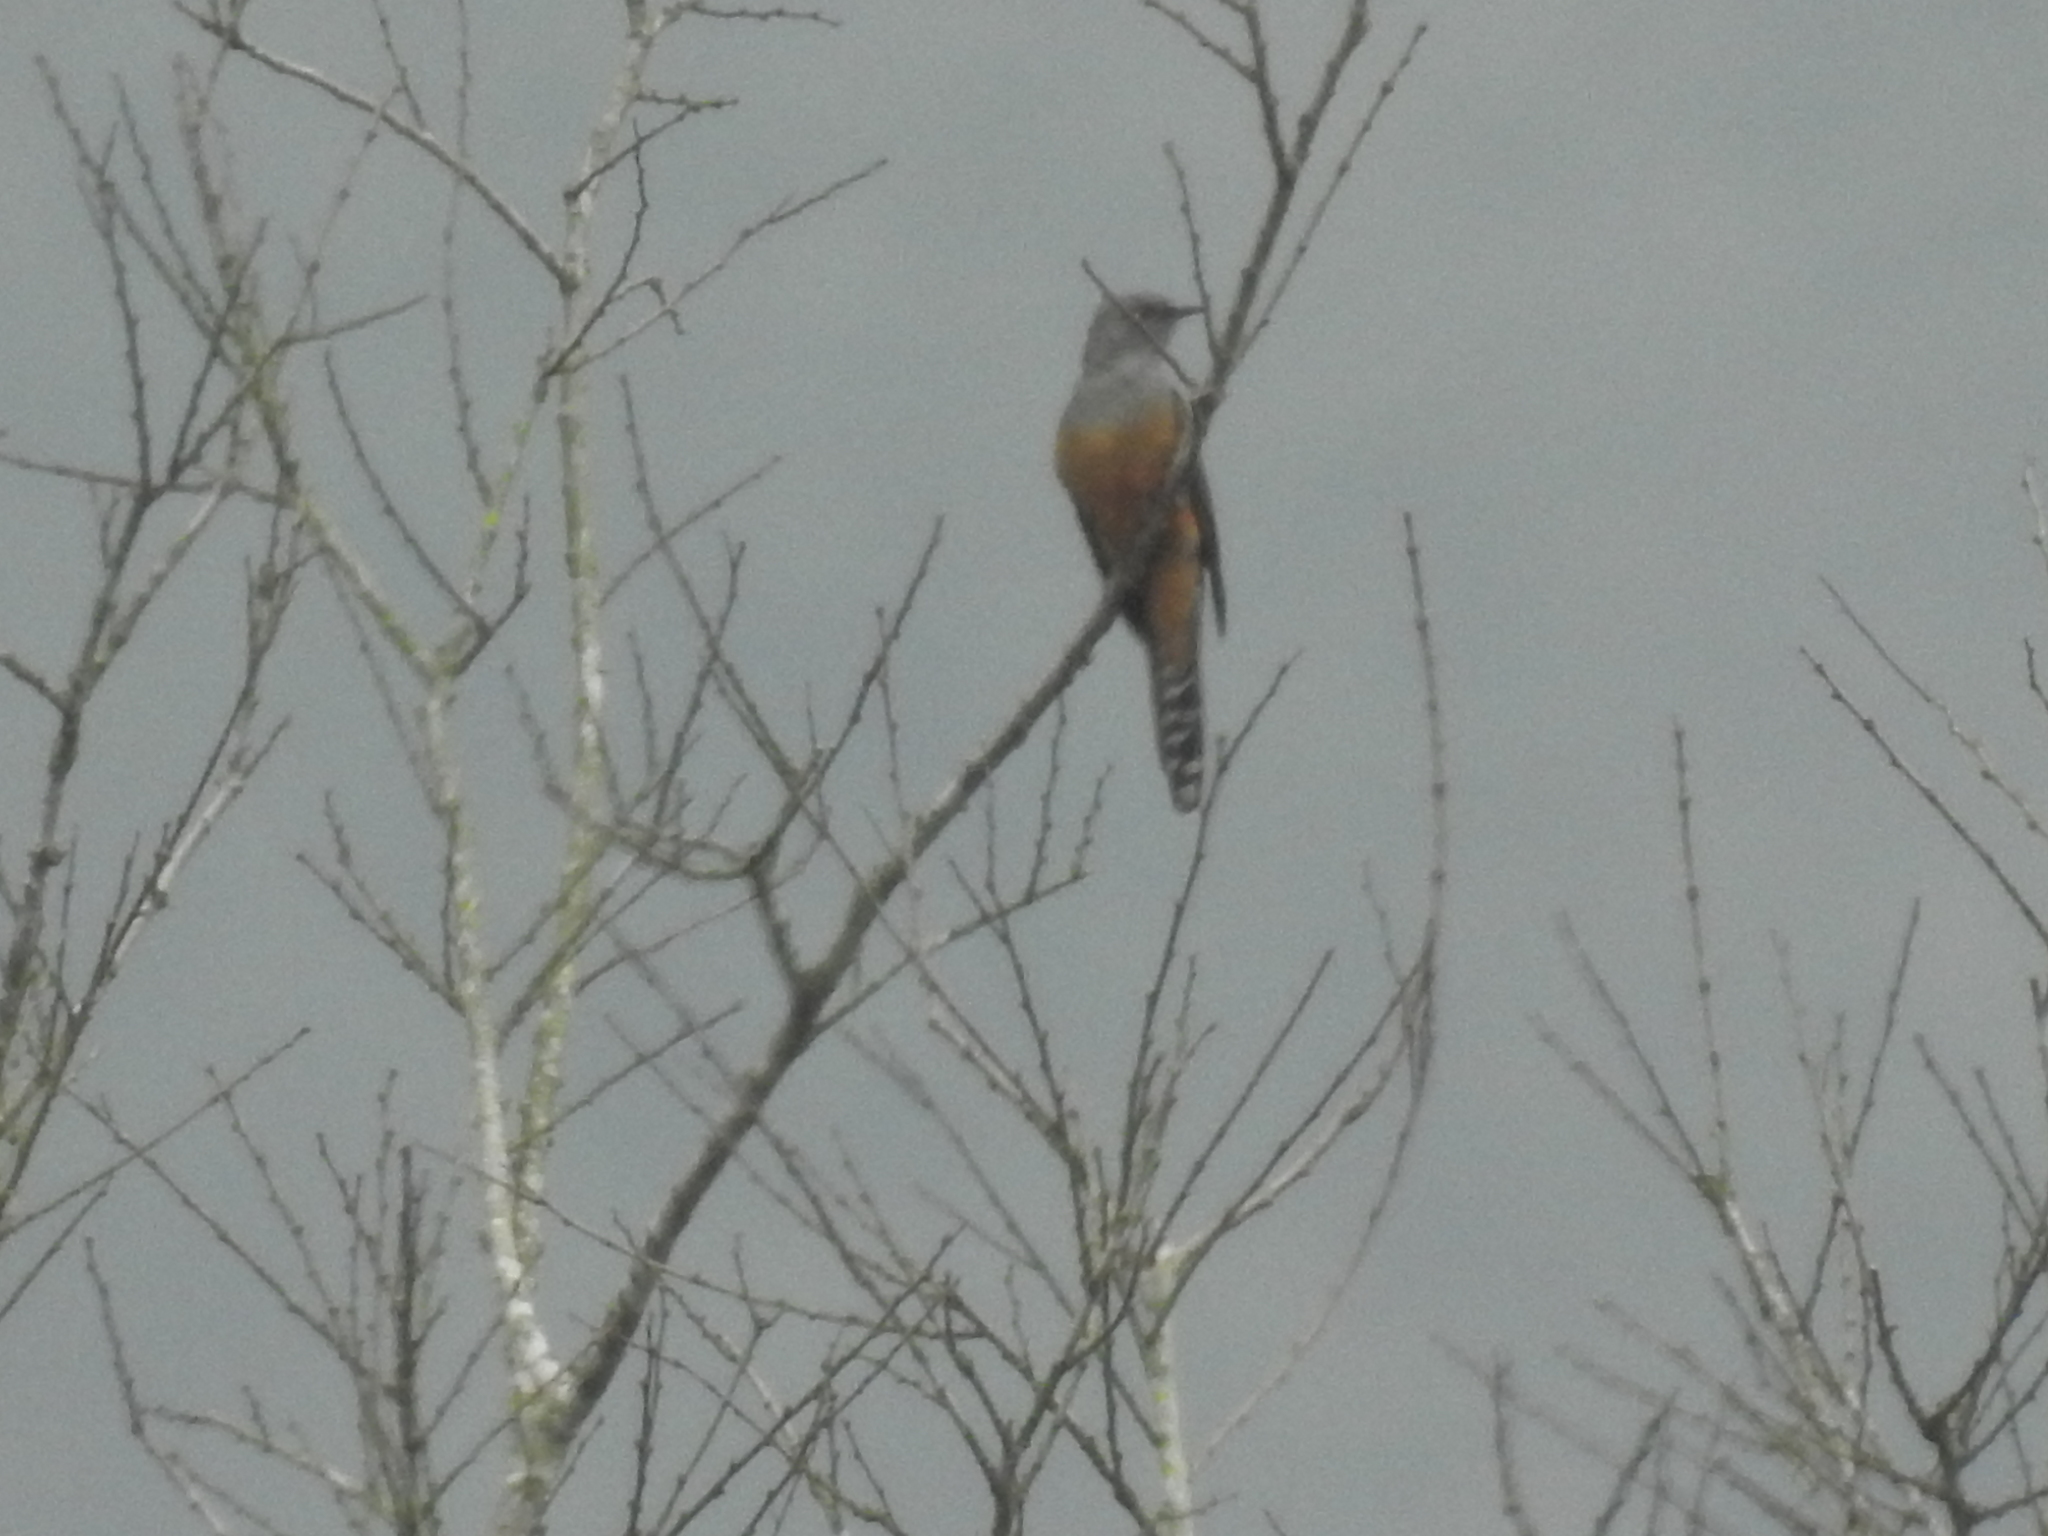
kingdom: Animalia
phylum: Chordata
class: Aves
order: Cuculiformes
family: Cuculidae
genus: Cacomantis
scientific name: Cacomantis merulinus
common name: Plaintive cuckoo
